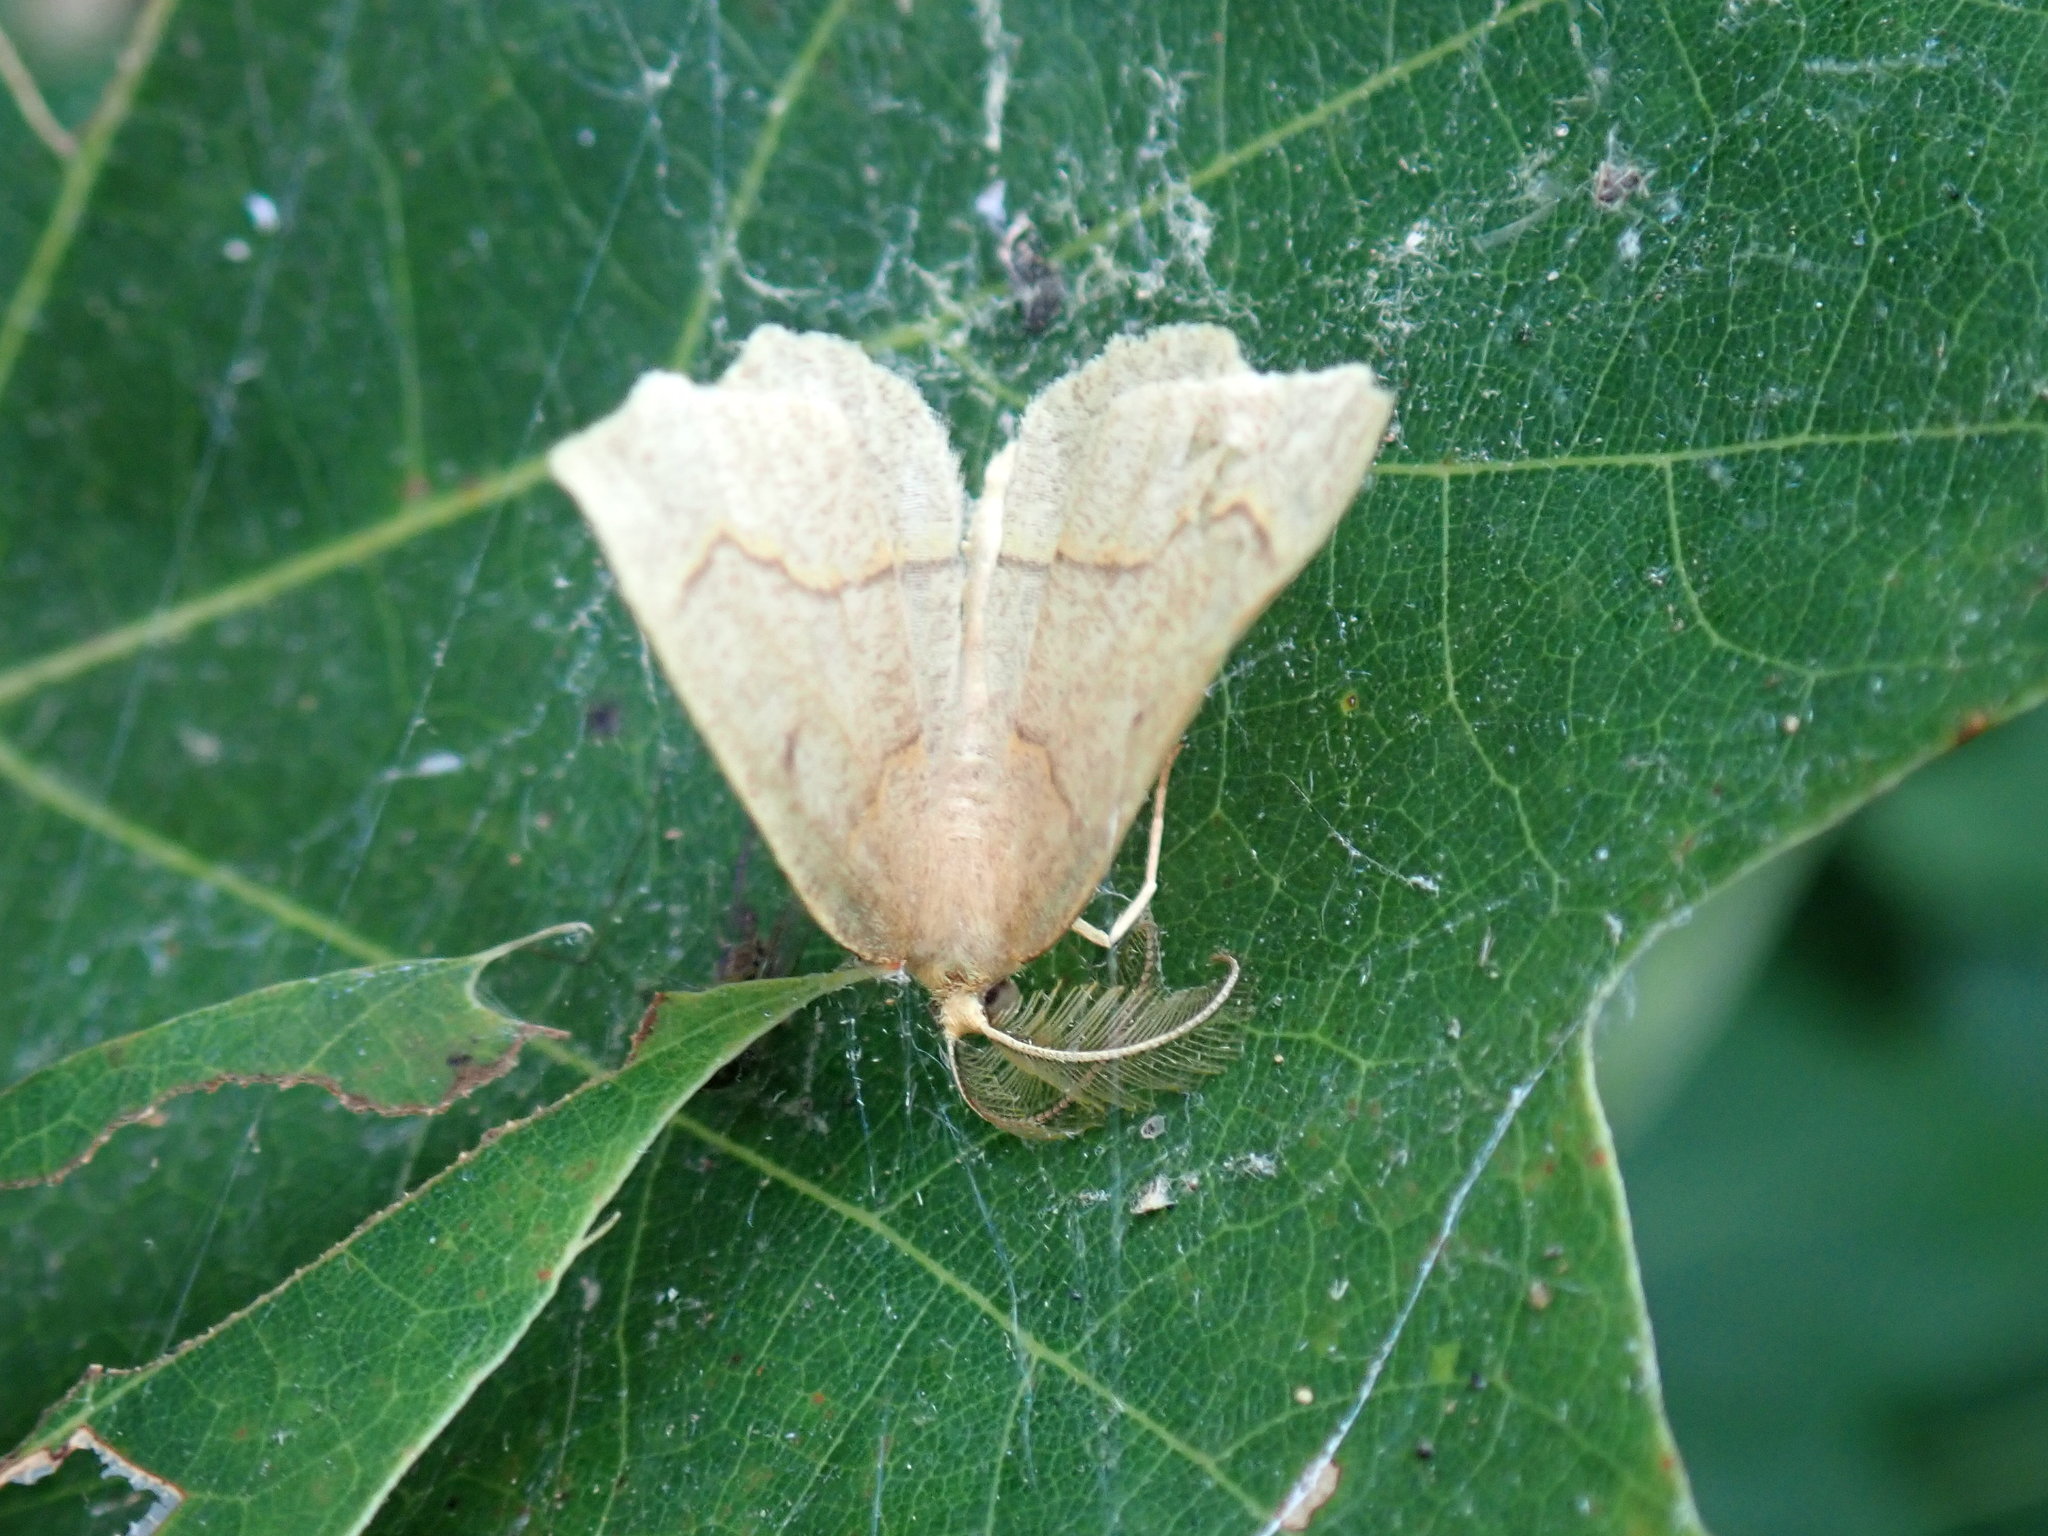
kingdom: Animalia
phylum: Arthropoda
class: Insecta
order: Lepidoptera
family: Geometridae
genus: Lambdina
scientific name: Lambdina fiscellaria
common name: Hemlock looper
